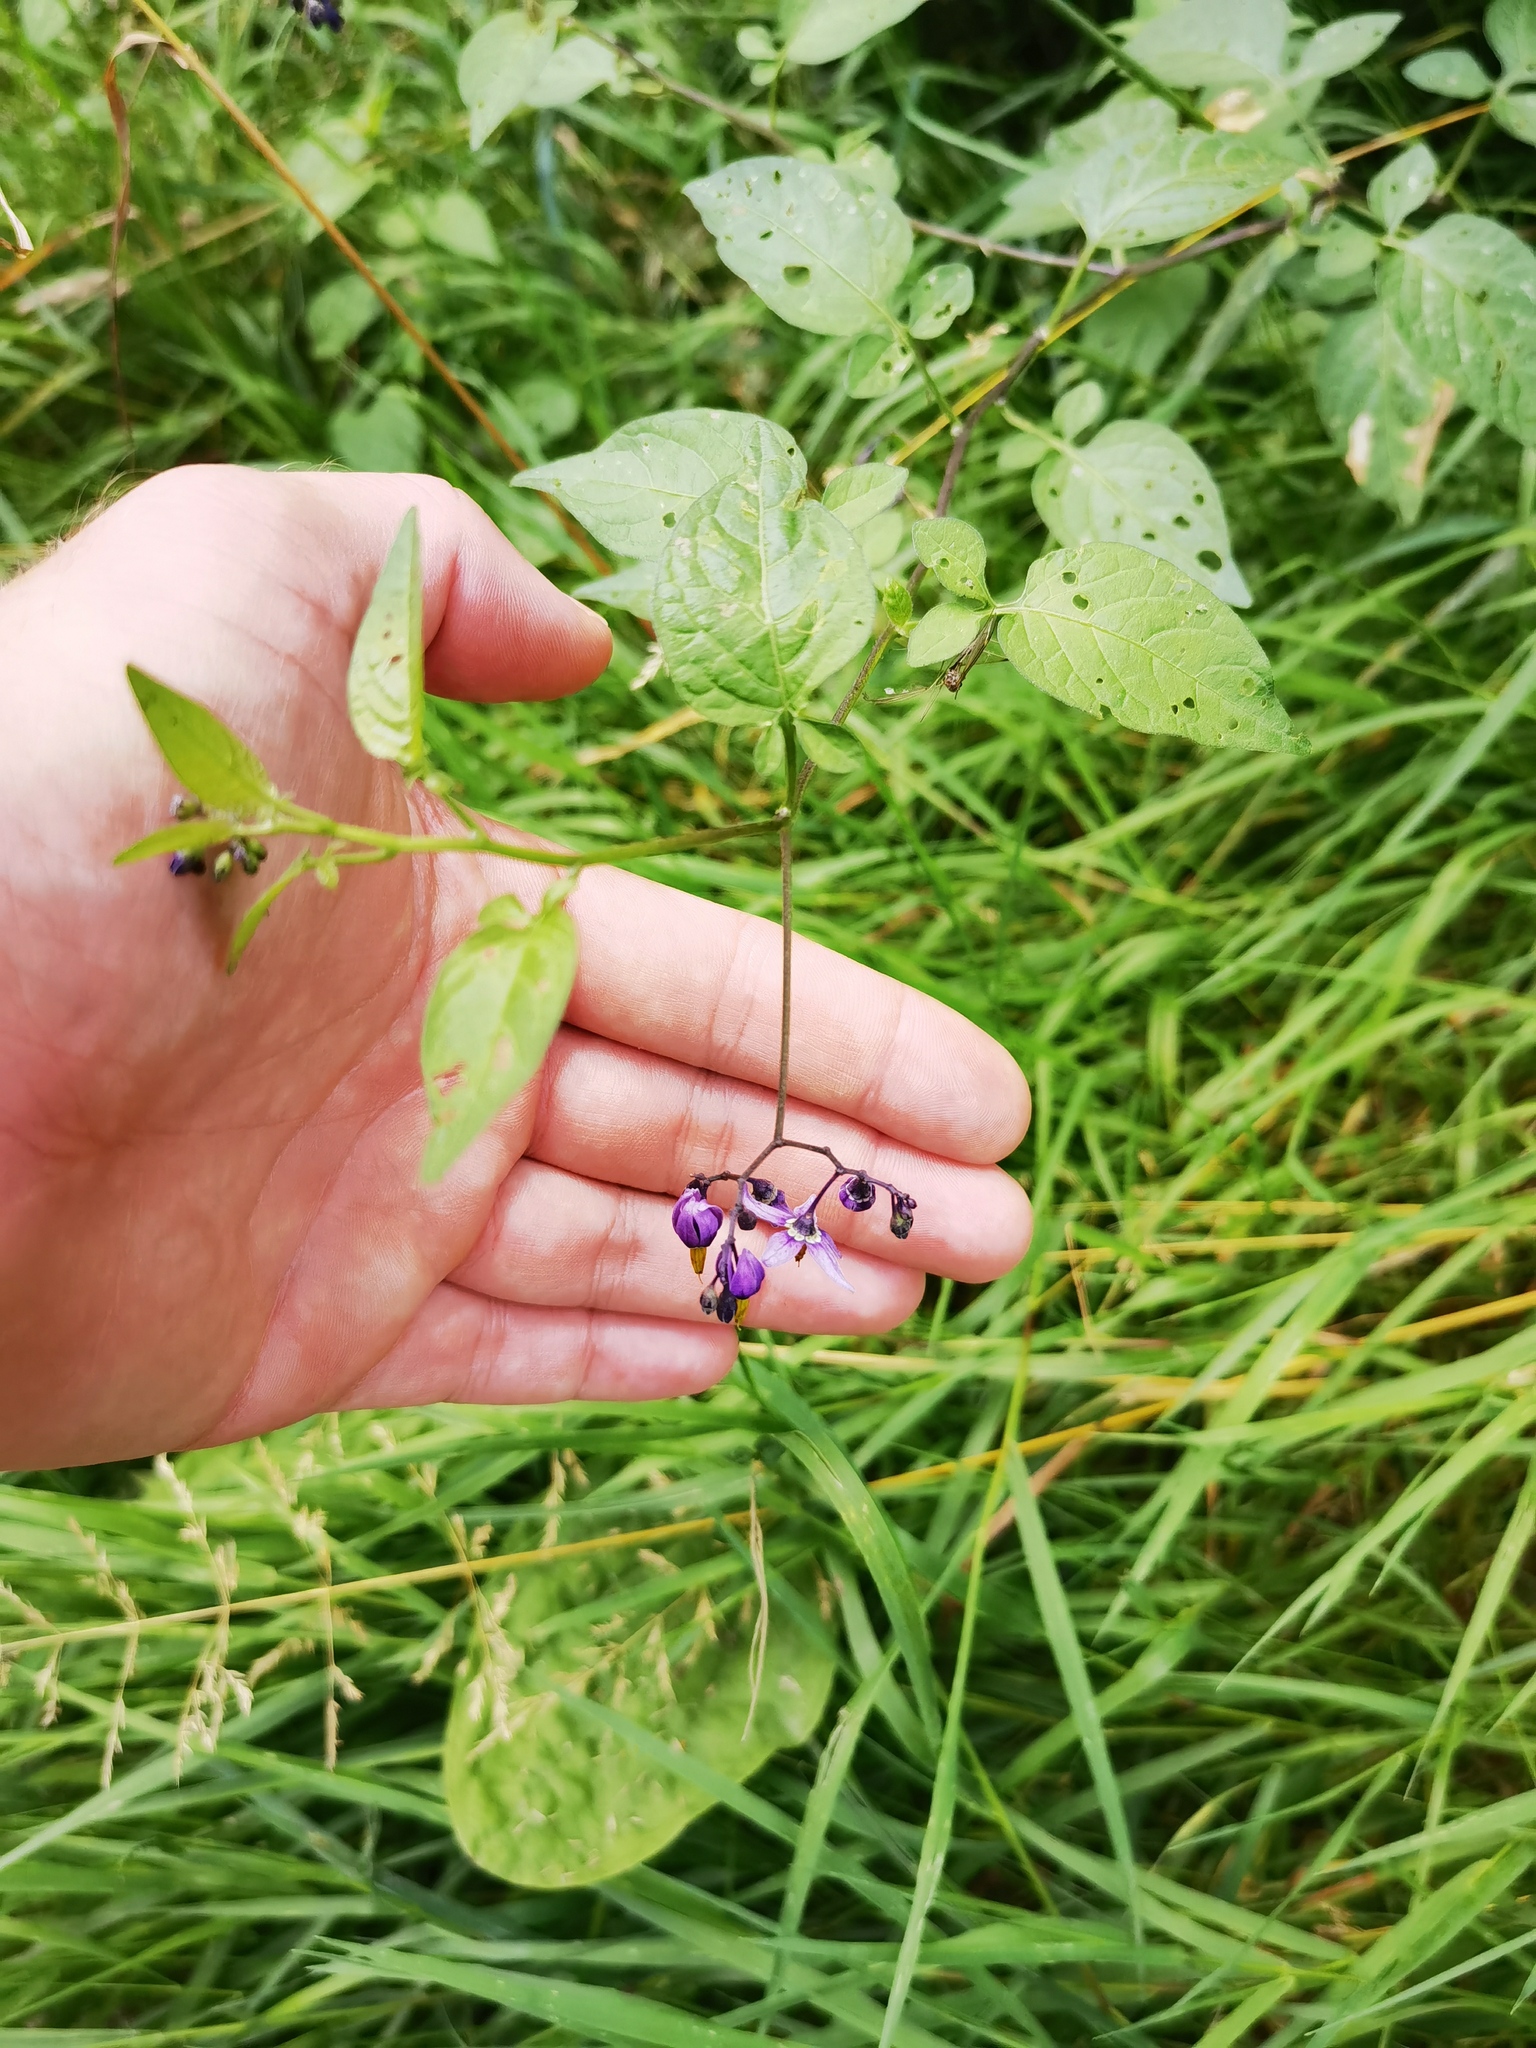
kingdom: Plantae
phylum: Tracheophyta
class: Magnoliopsida
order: Solanales
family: Solanaceae
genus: Solanum
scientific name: Solanum dulcamara
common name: Climbing nightshade
